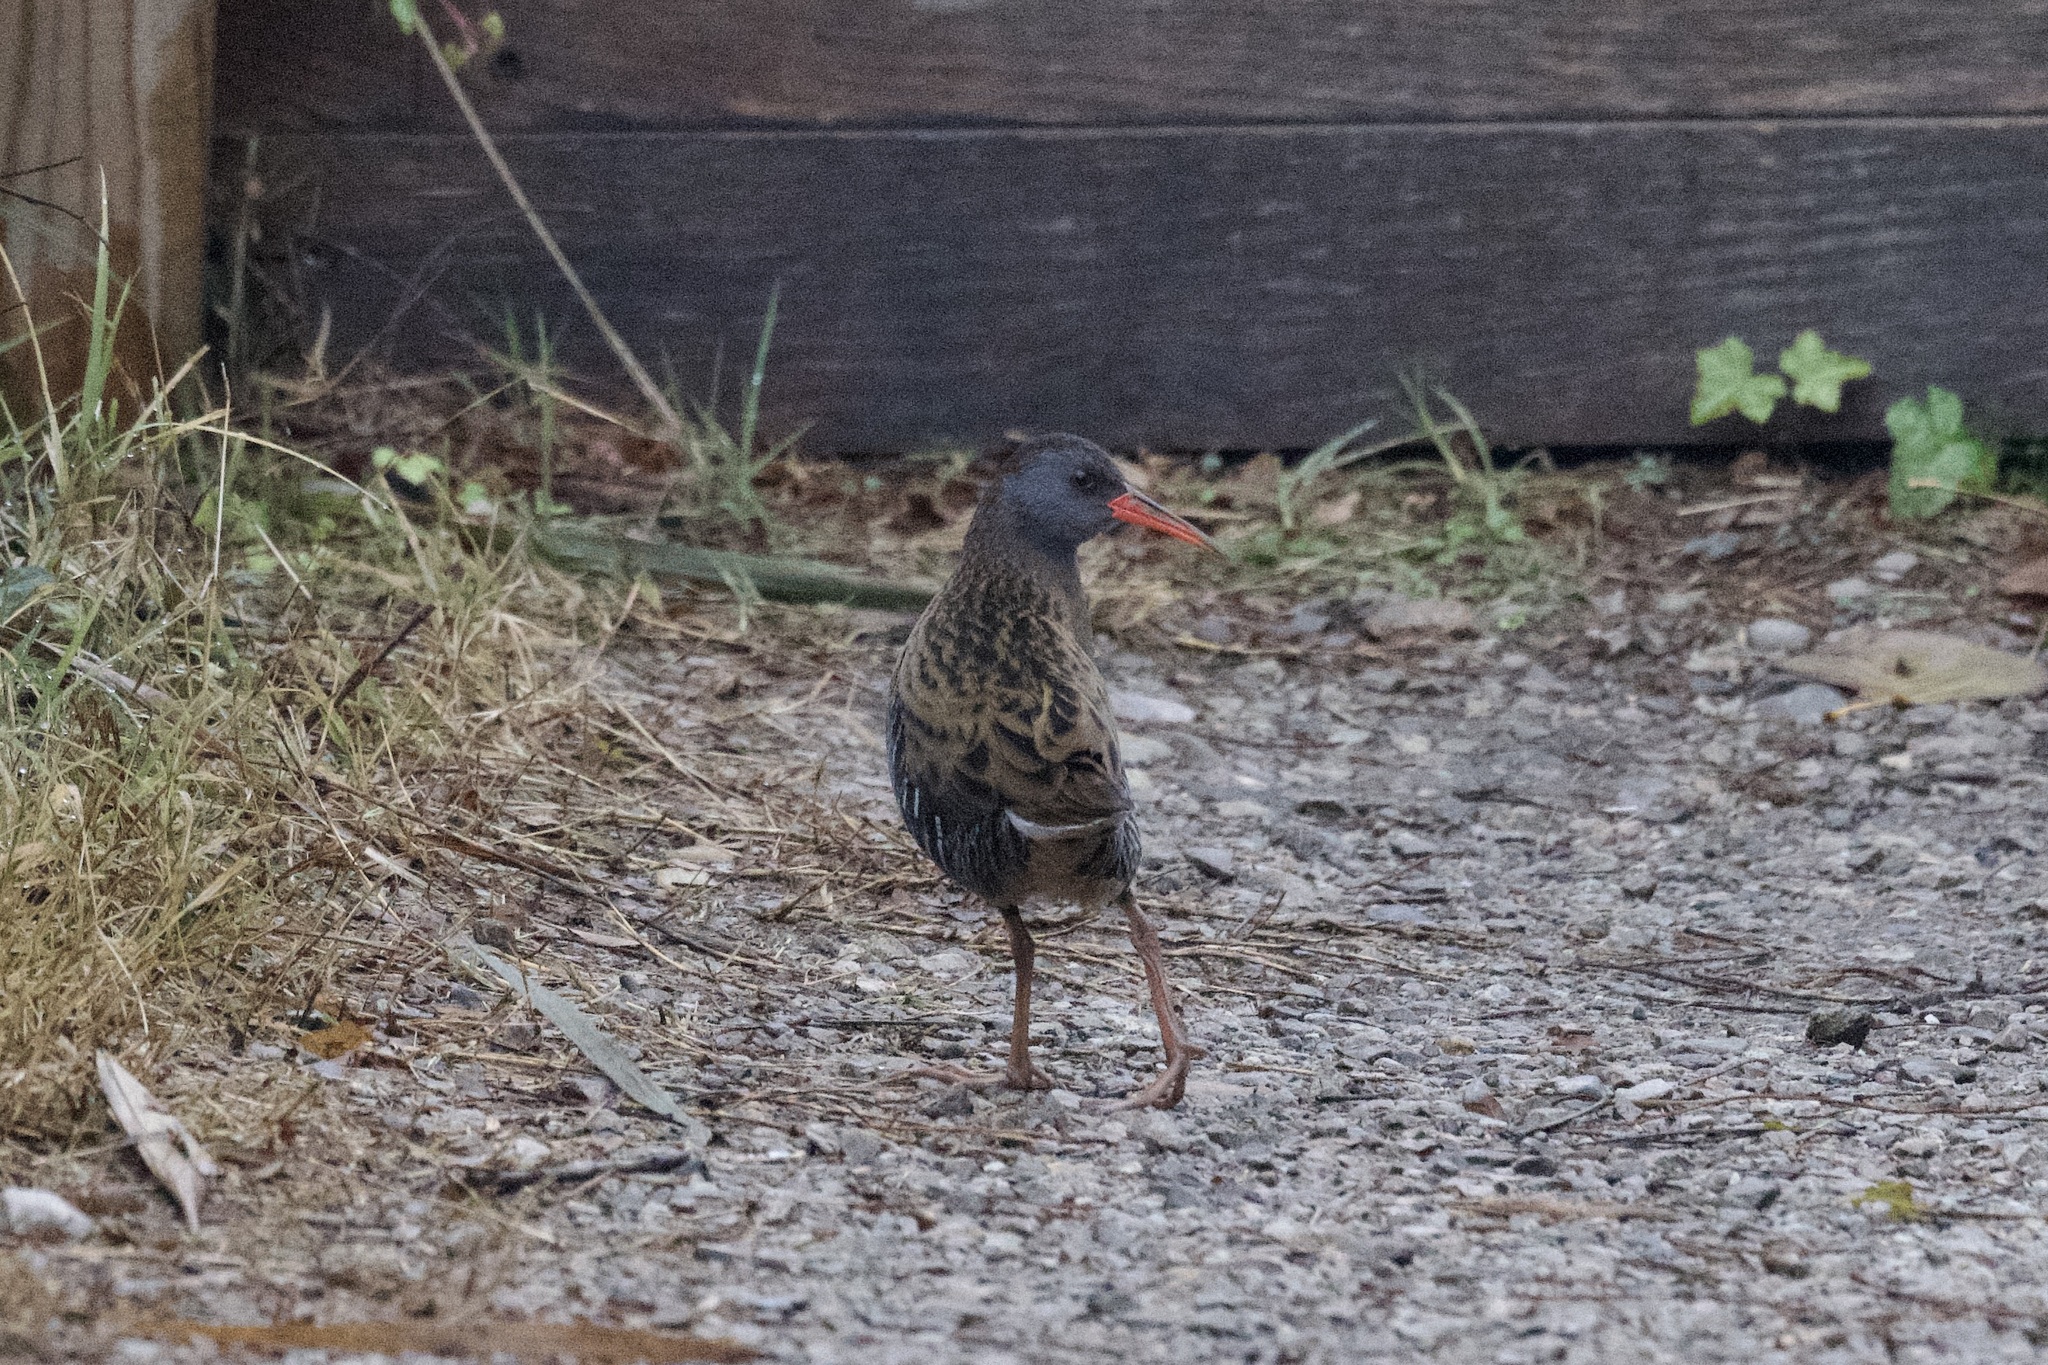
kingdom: Animalia
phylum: Chordata
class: Aves
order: Gruiformes
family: Rallidae
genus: Rallus
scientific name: Rallus aquaticus
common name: Water rail
